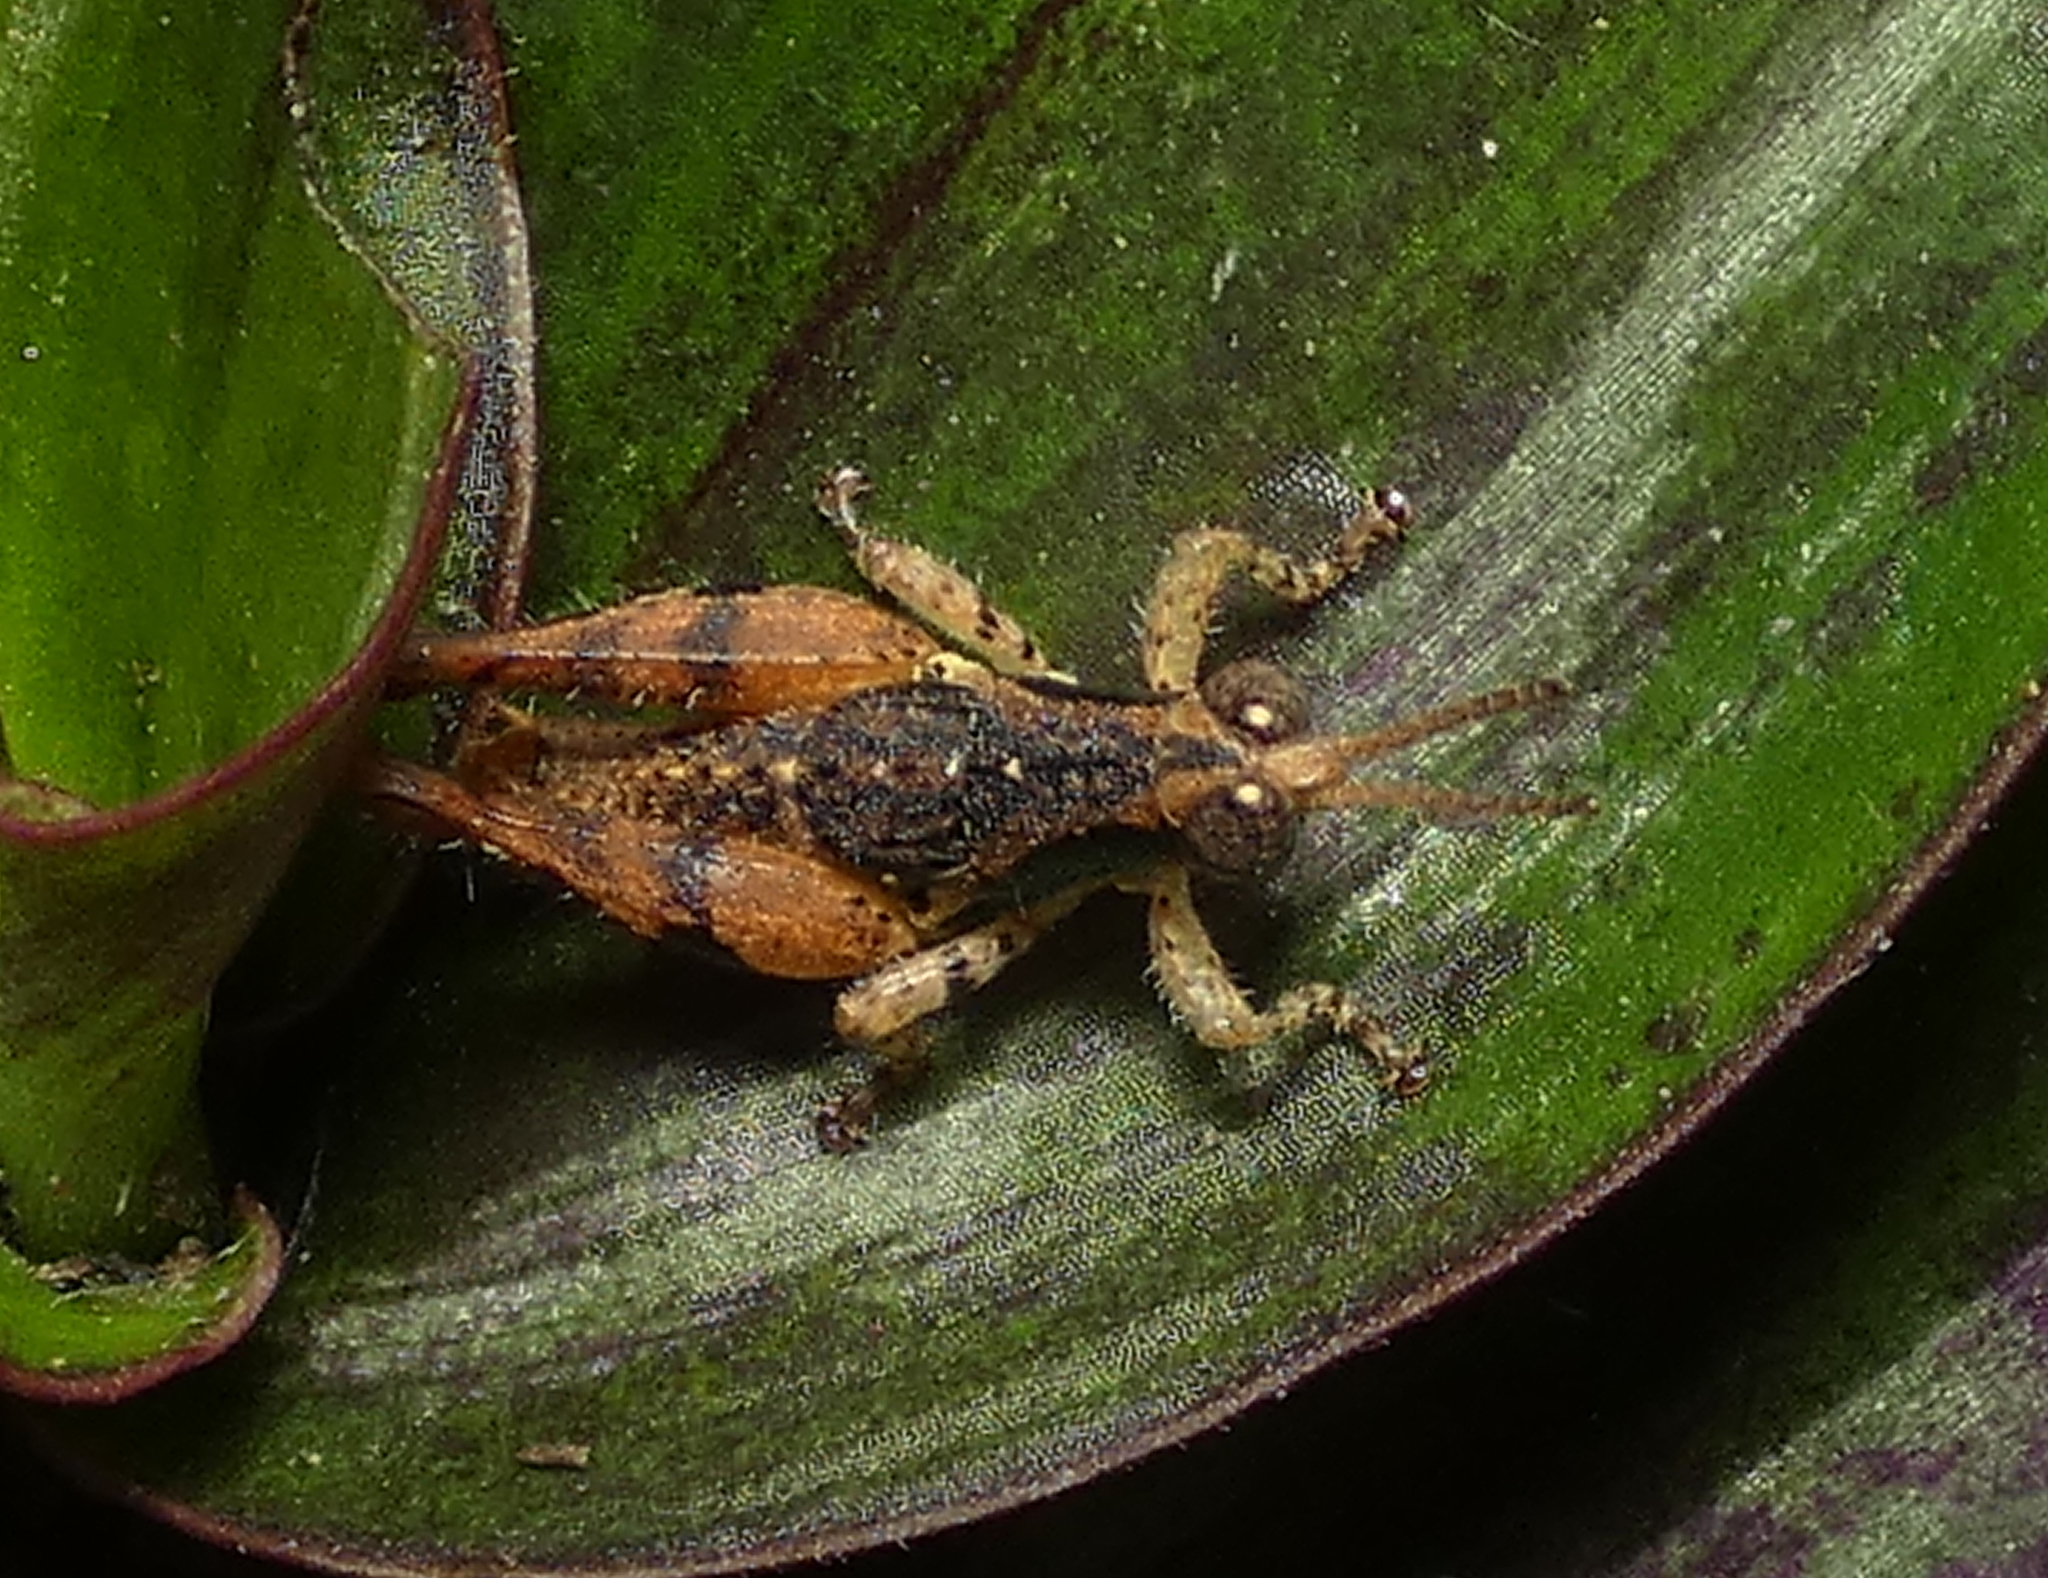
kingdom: Animalia
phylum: Arthropoda
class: Insecta
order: Orthoptera
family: Acrididae
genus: Eujivarus
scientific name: Eujivarus meridionalis
